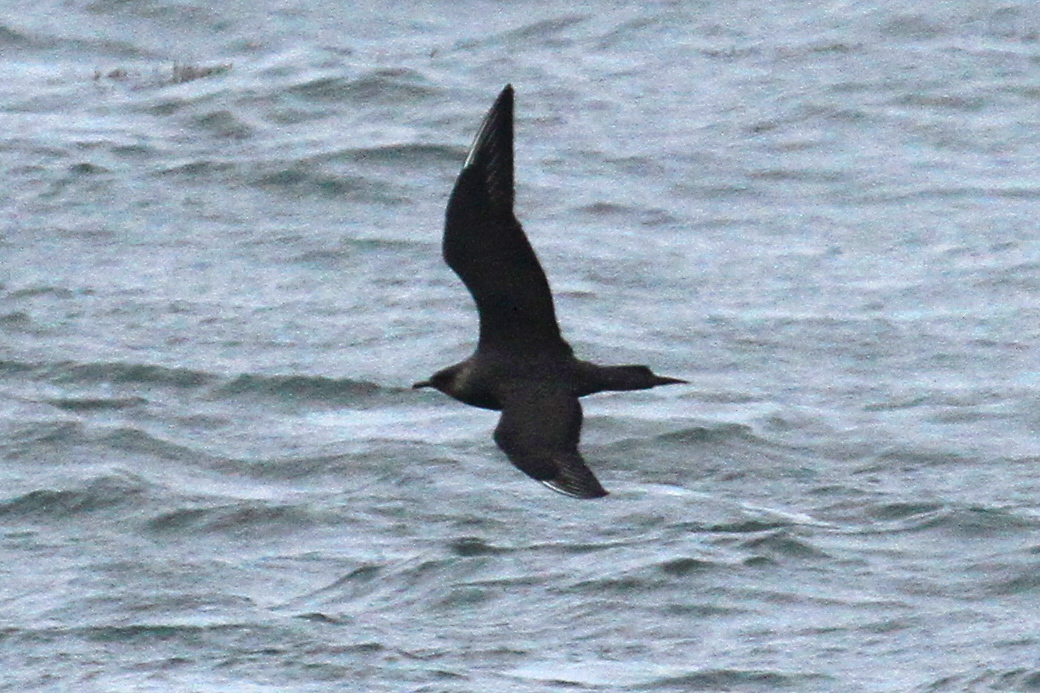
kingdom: Animalia
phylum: Chordata
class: Aves
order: Charadriiformes
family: Stercorariidae
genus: Stercorarius
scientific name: Stercorarius parasiticus
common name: Parasitic jaeger
